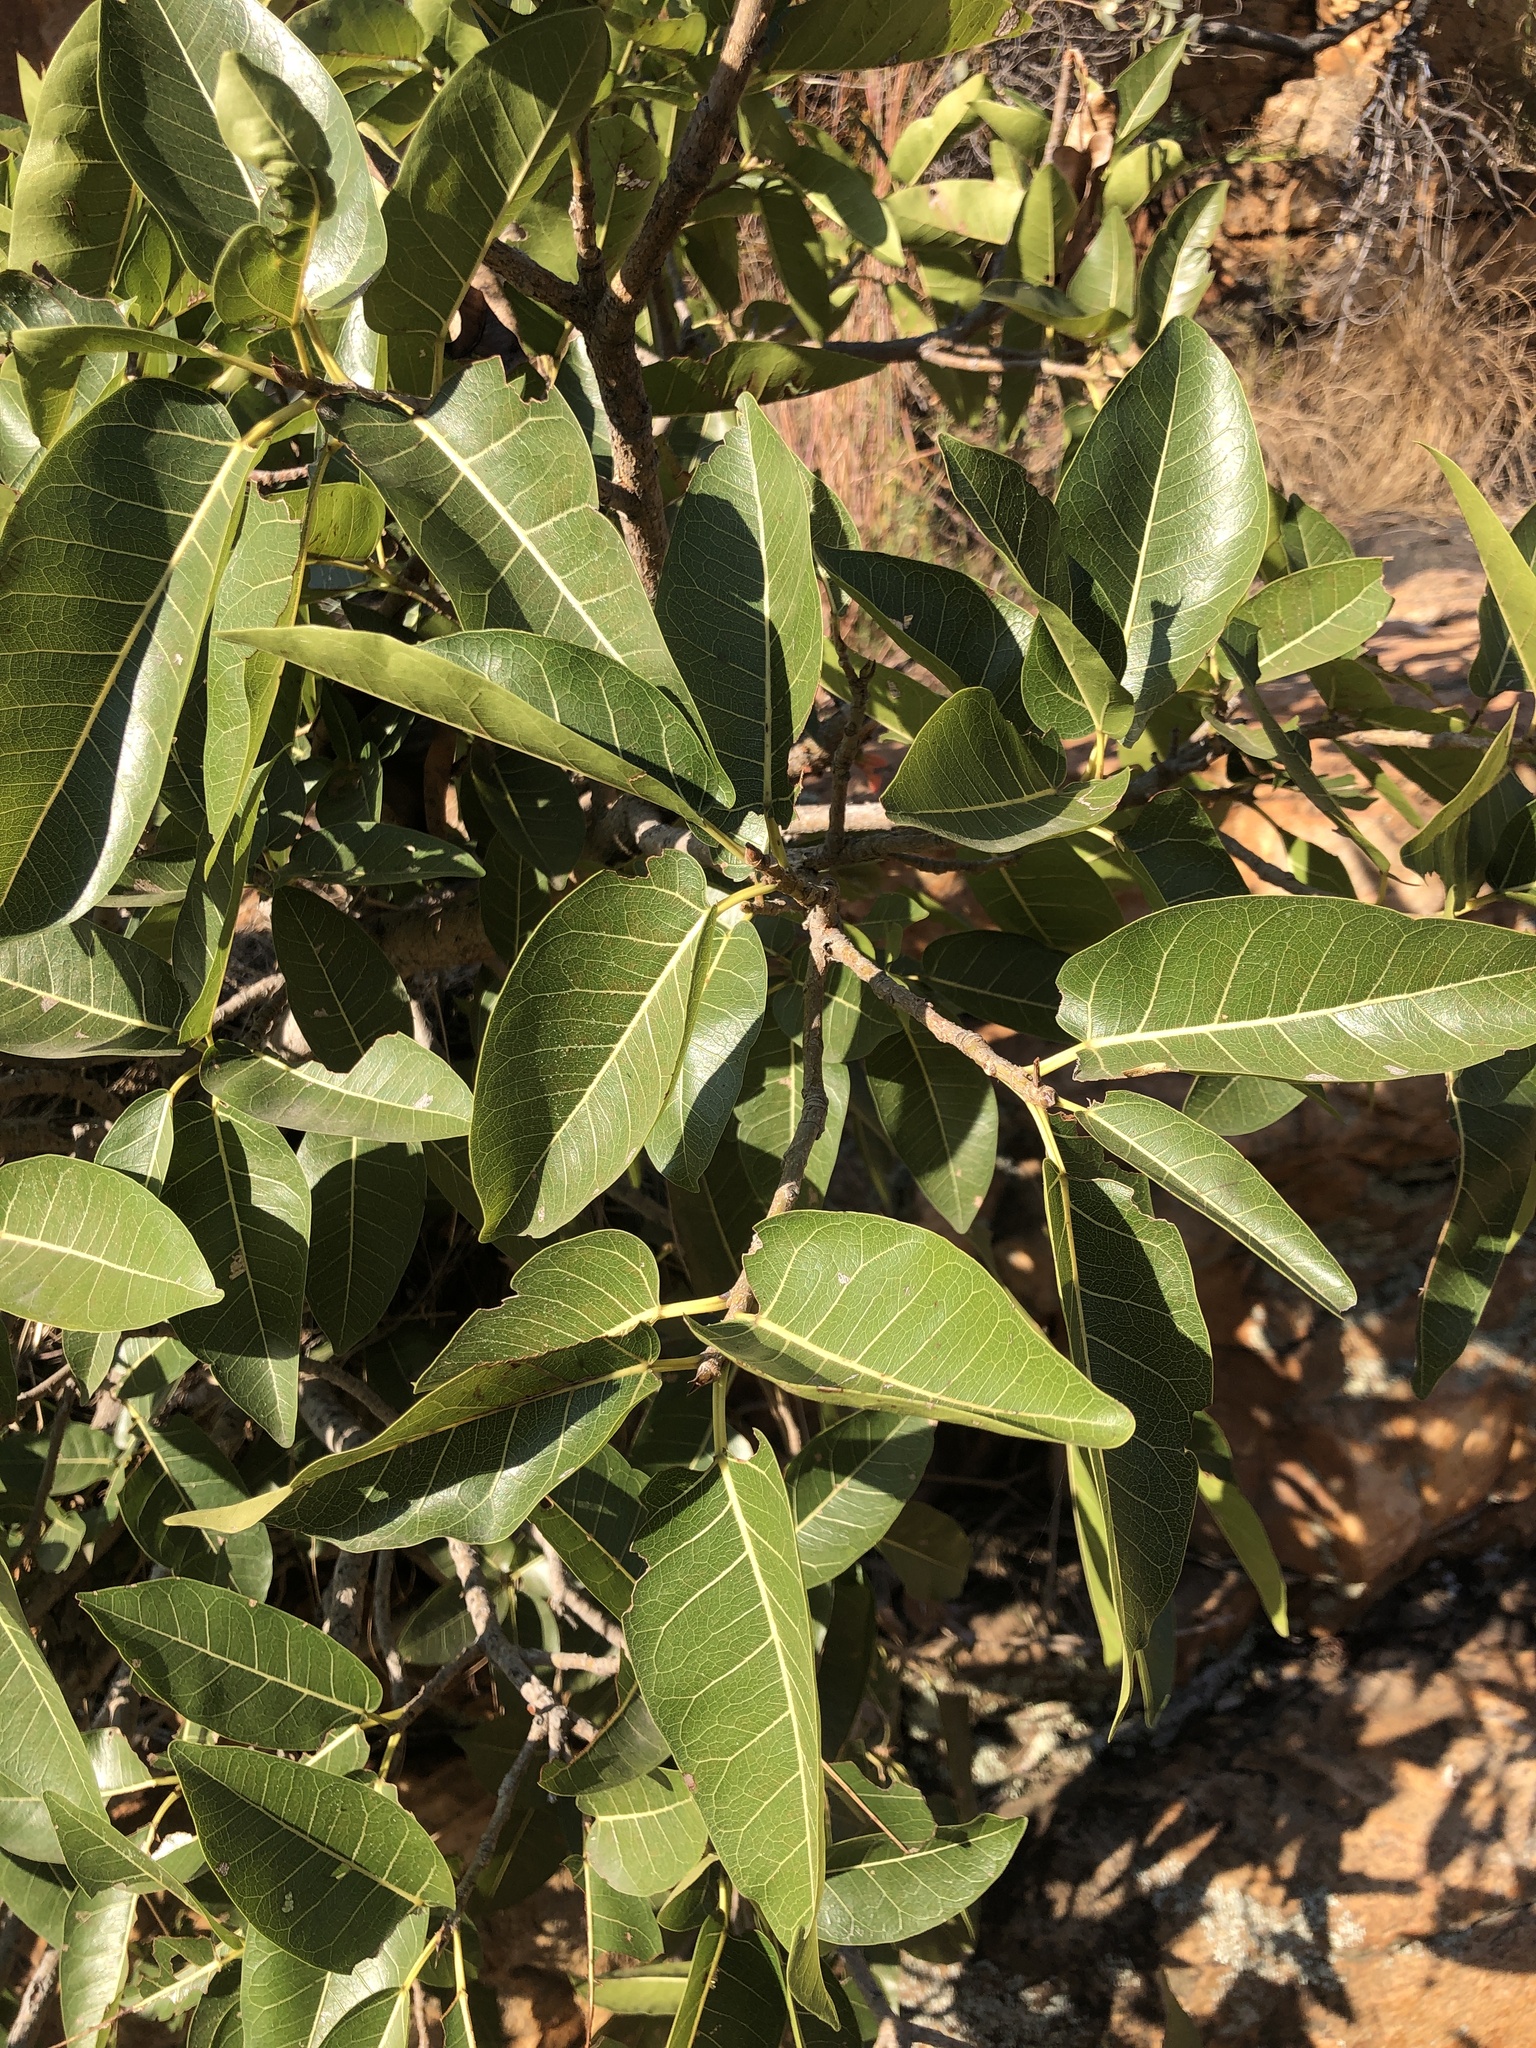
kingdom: Plantae
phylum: Tracheophyta
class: Magnoliopsida
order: Rosales
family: Moraceae
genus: Ficus
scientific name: Ficus ingens
